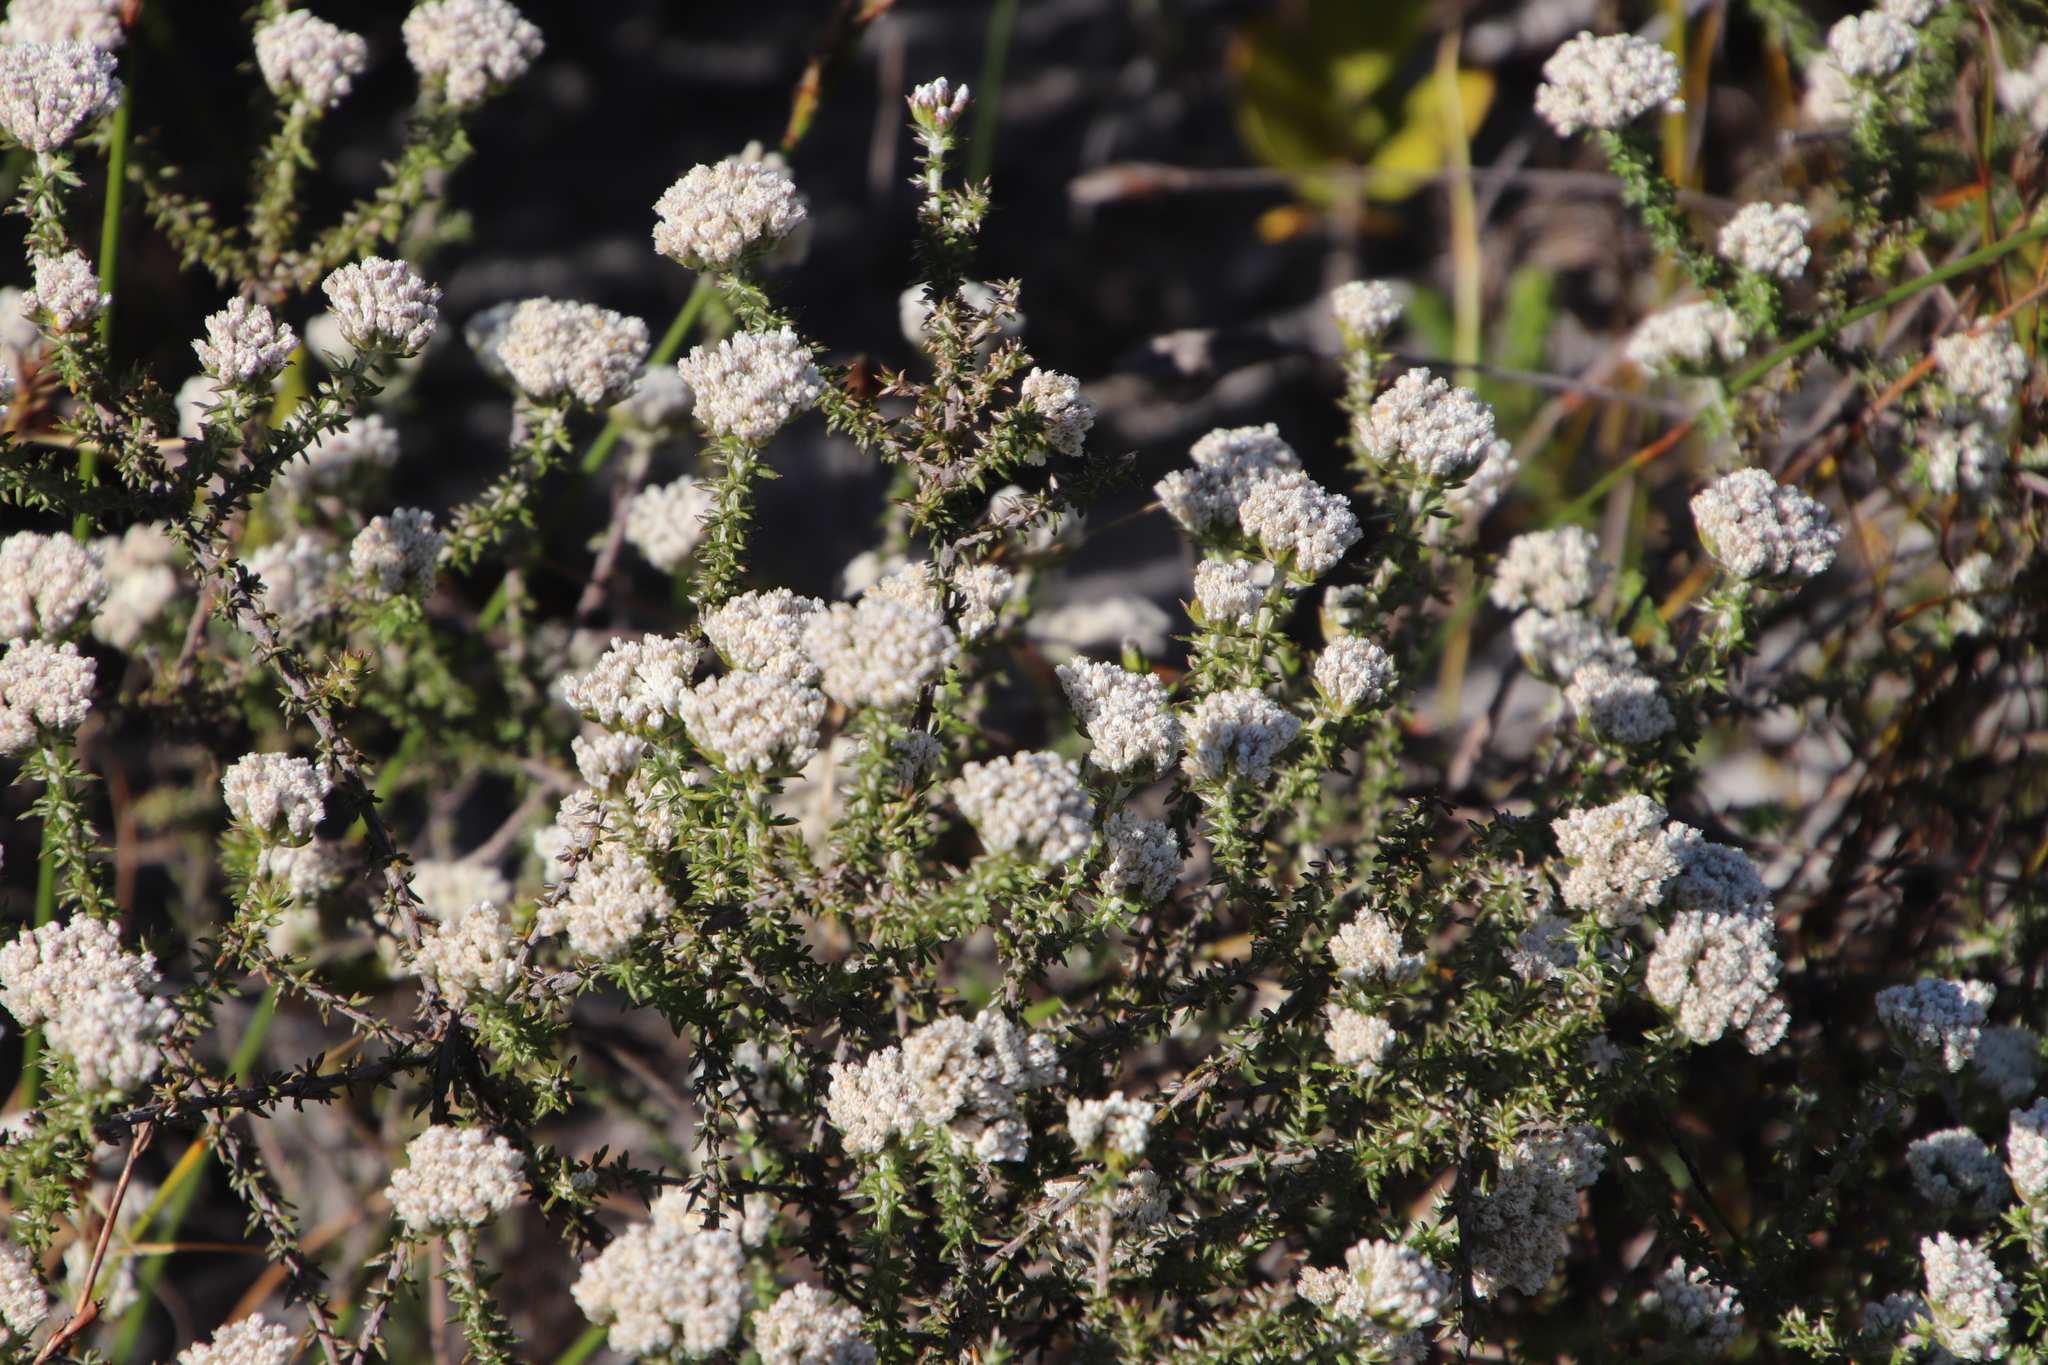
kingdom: Plantae
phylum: Tracheophyta
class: Magnoliopsida
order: Asterales
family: Asteraceae
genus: Metalasia
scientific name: Metalasia brevifolia
